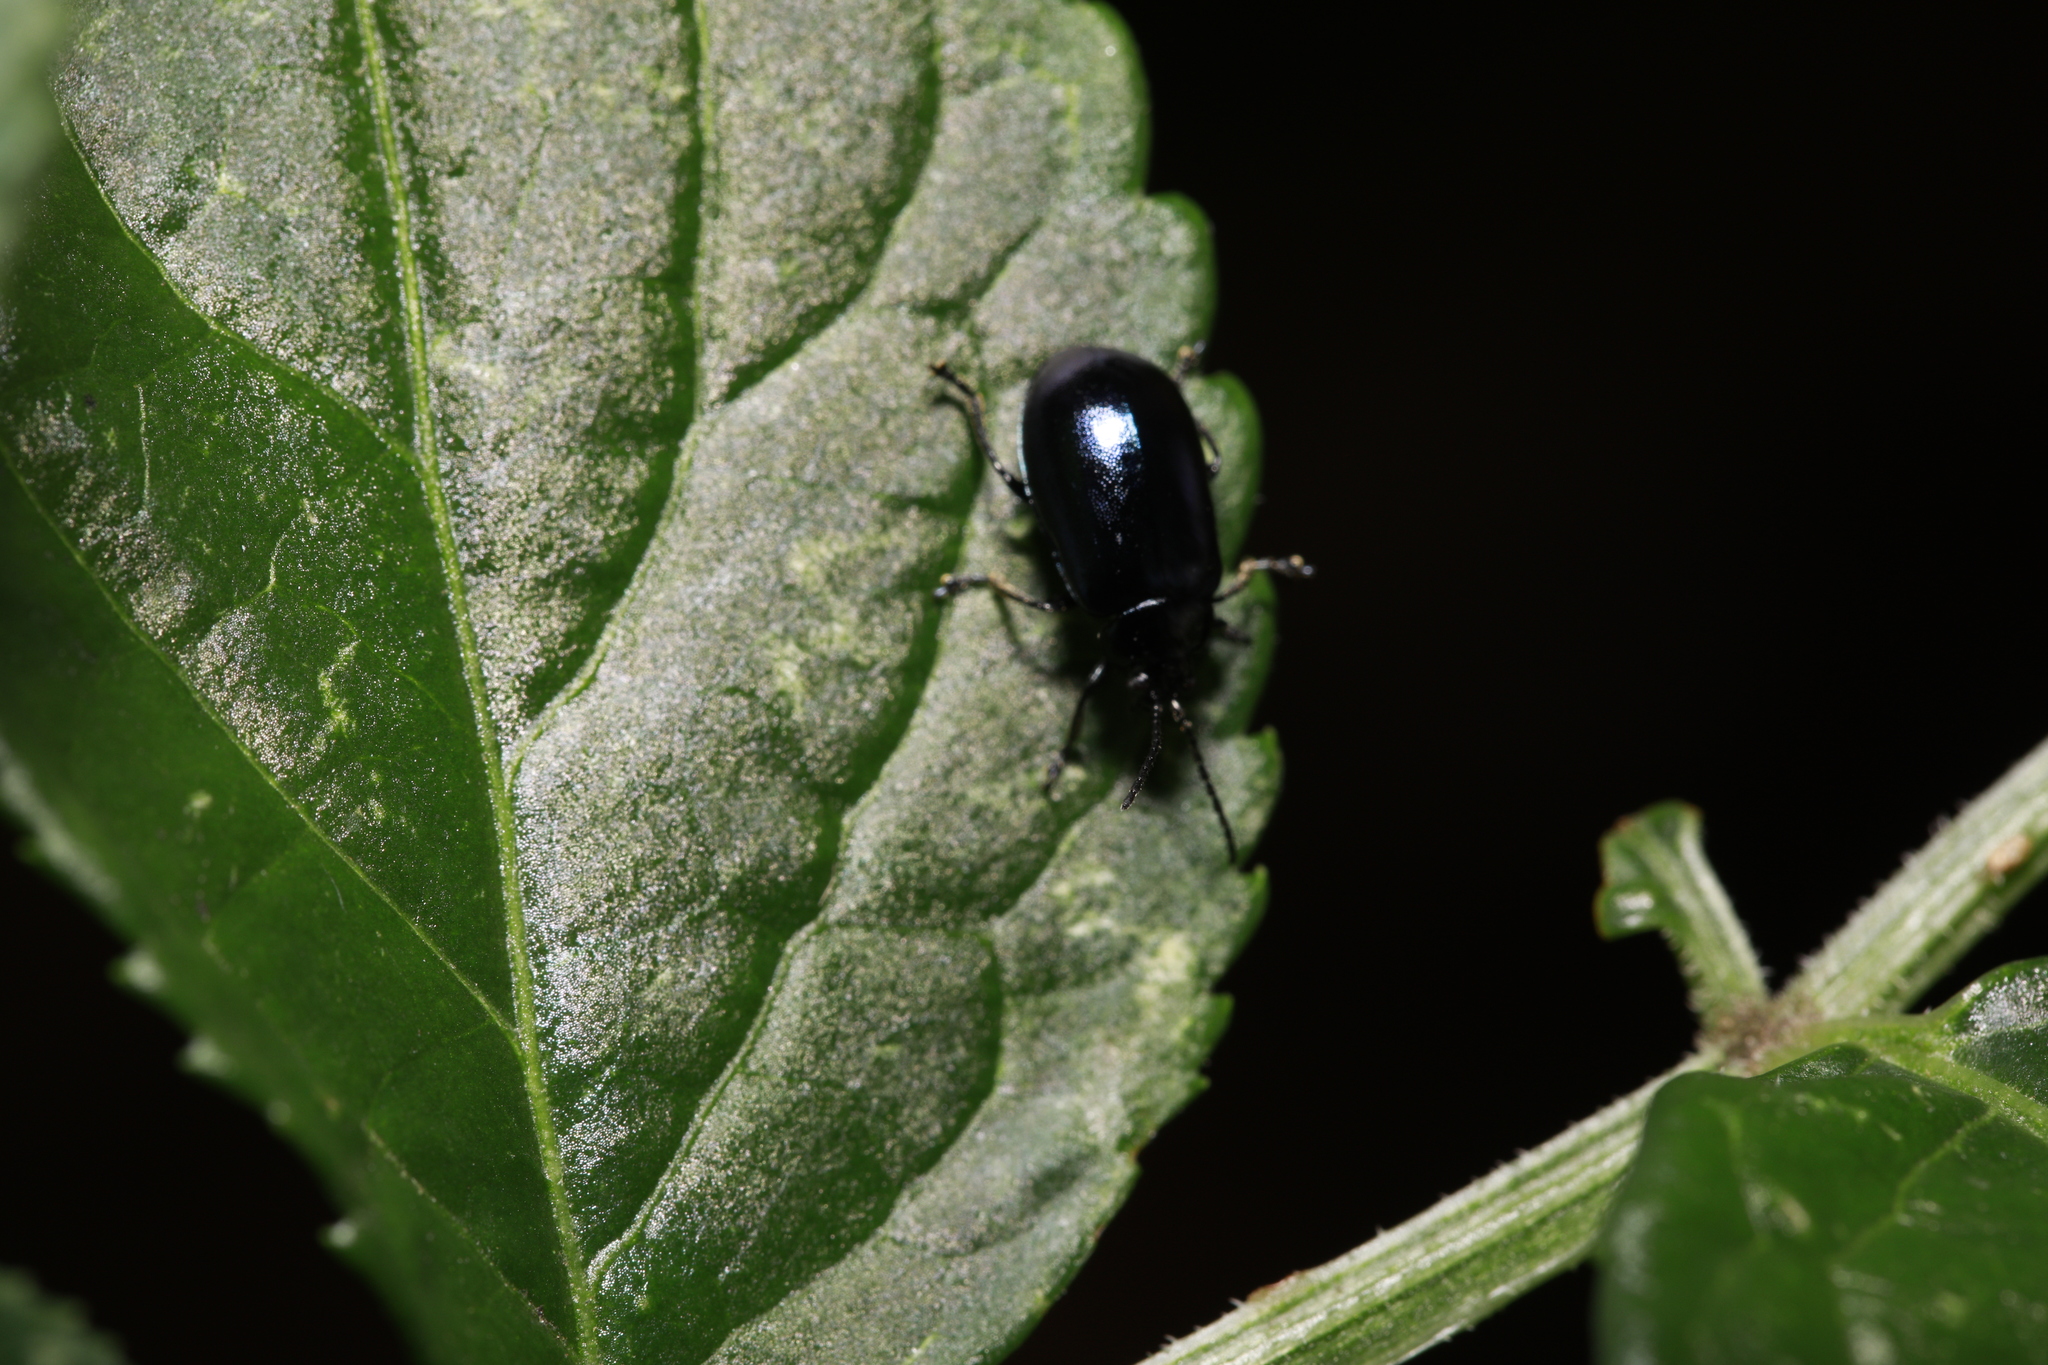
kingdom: Animalia
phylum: Arthropoda
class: Insecta
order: Coleoptera
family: Chrysomelidae
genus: Agelastica
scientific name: Agelastica alni
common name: Alder leaf beetle
